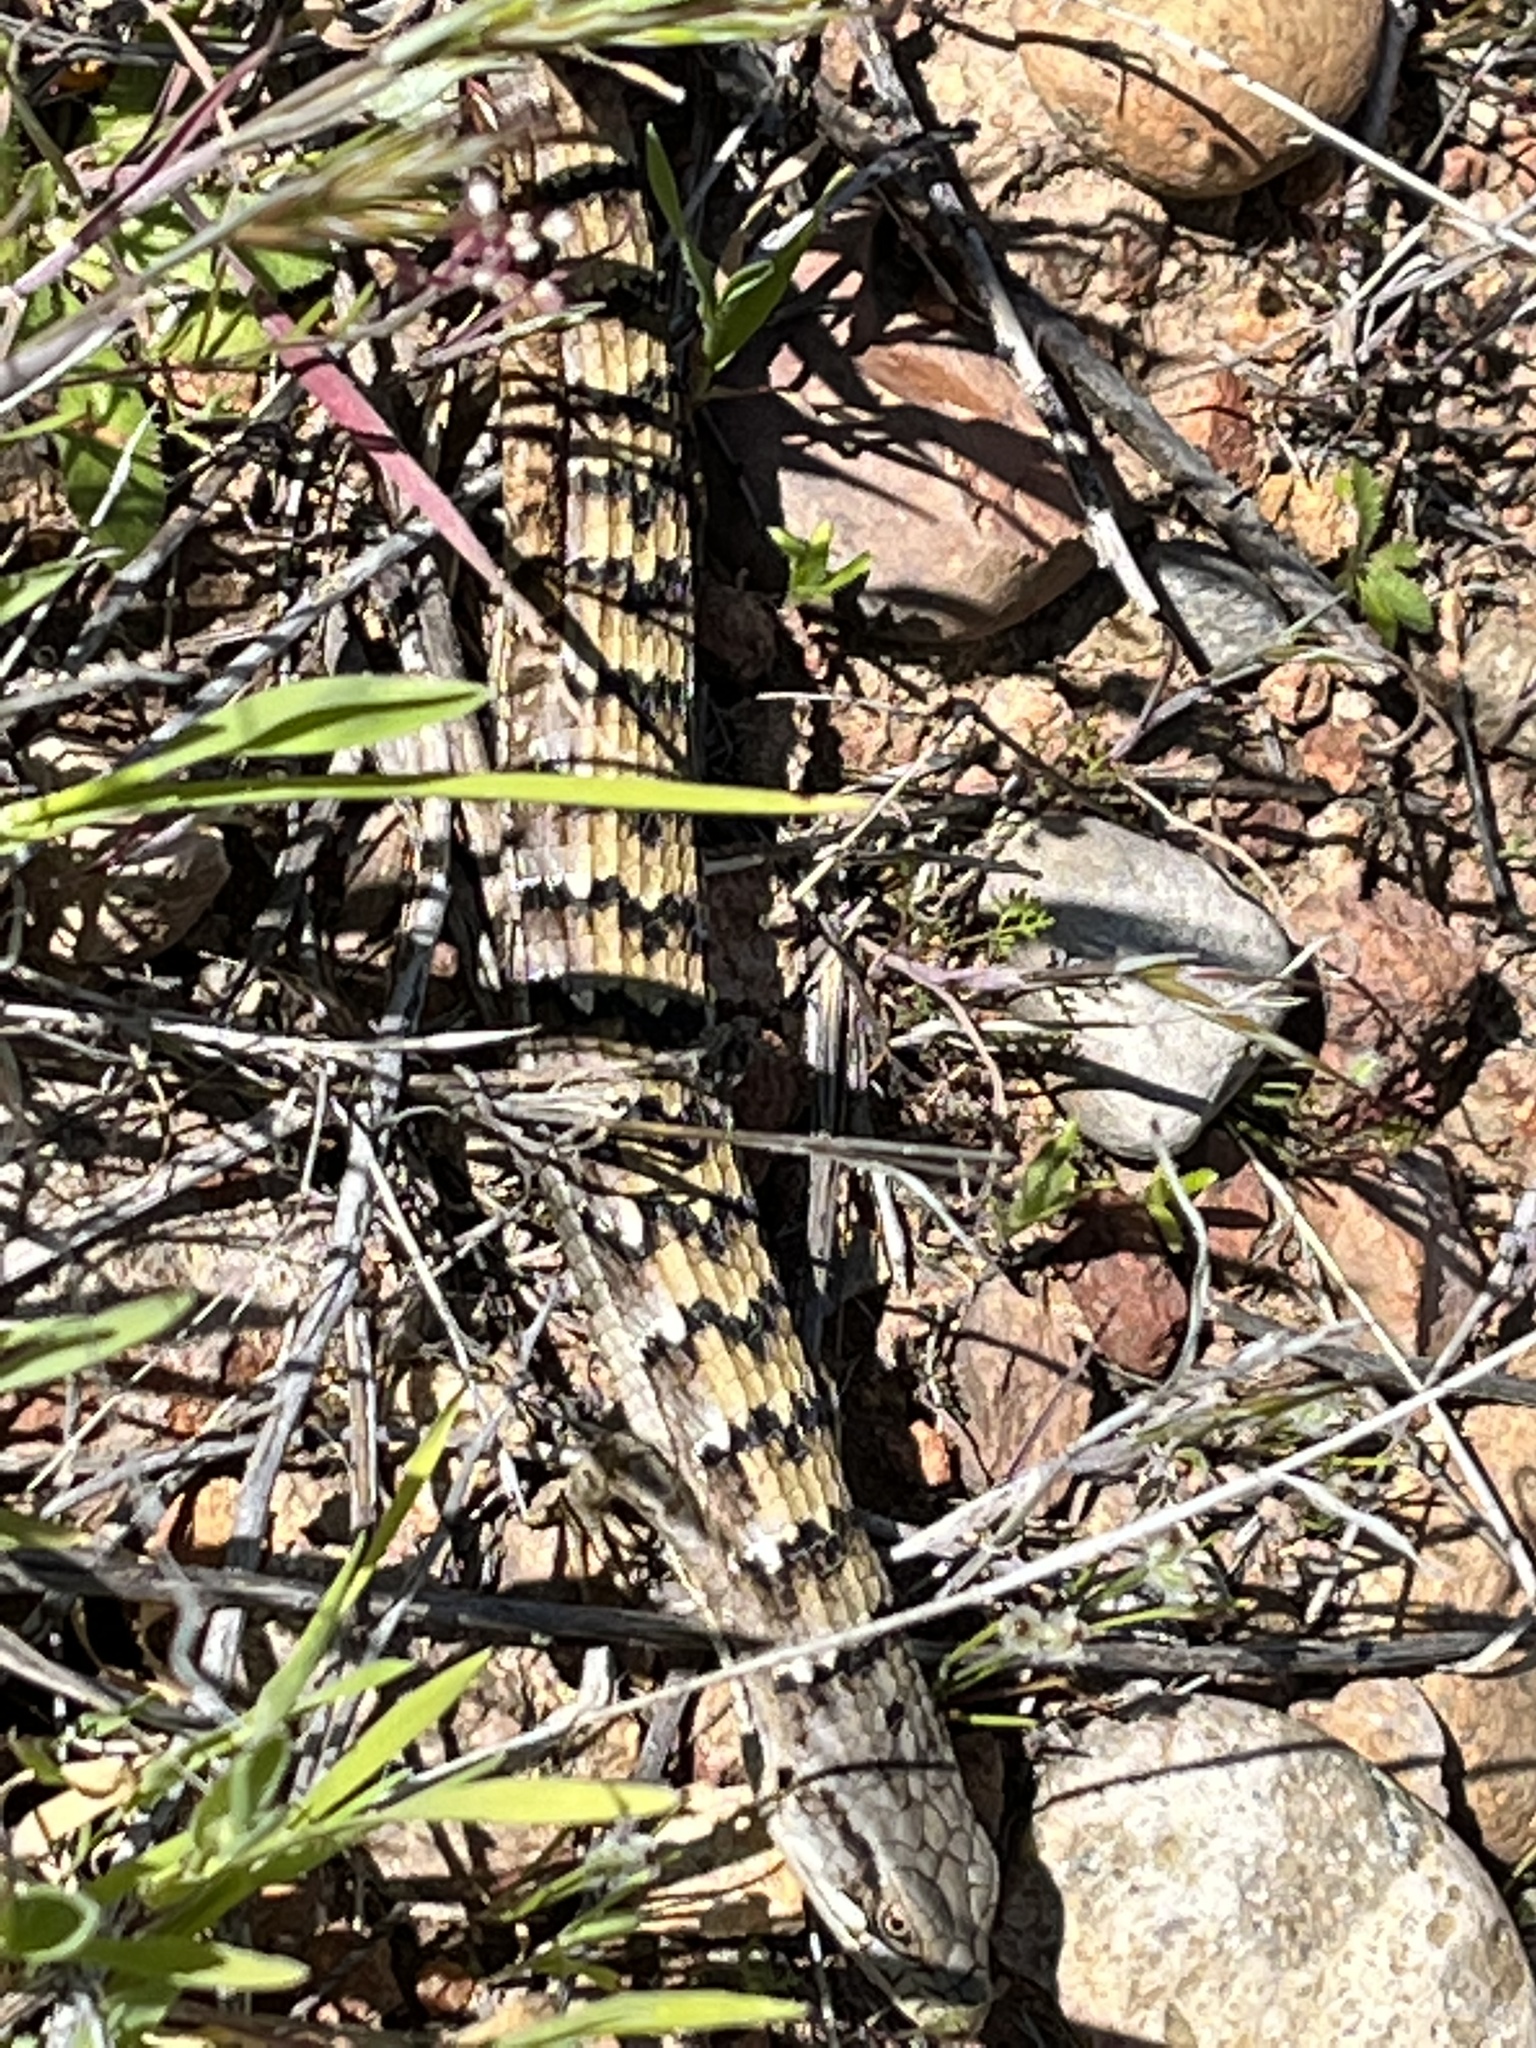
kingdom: Animalia
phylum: Chordata
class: Squamata
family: Anguidae
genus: Elgaria
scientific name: Elgaria multicarinata
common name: Southern alligator lizard
